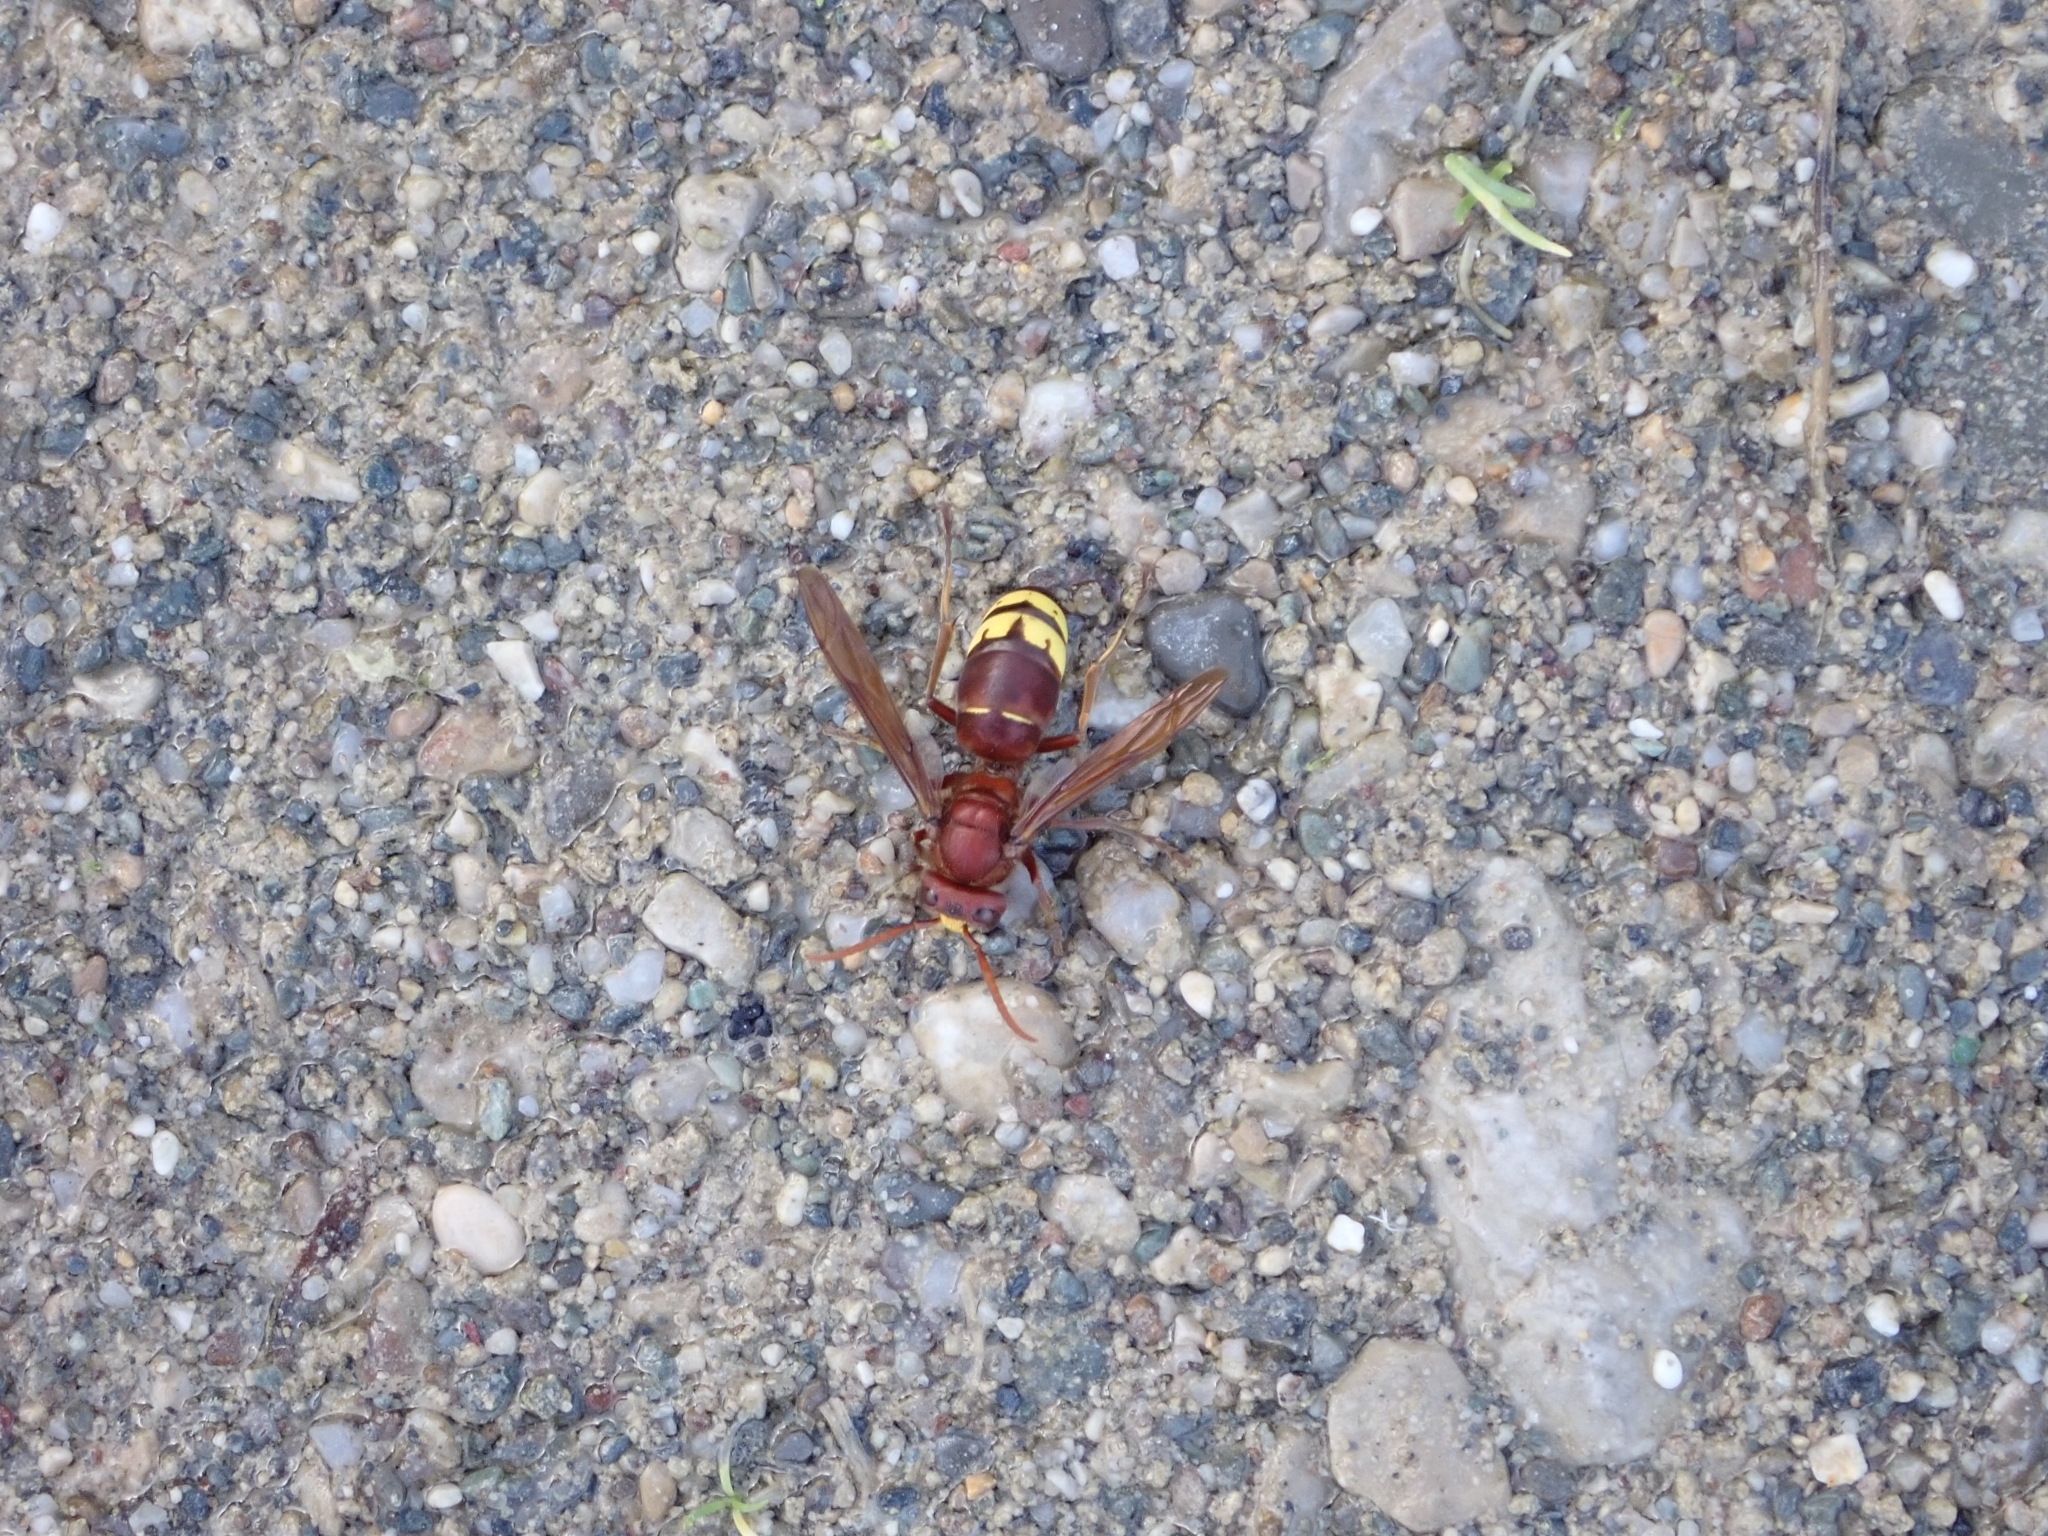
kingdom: Animalia
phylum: Arthropoda
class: Insecta
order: Hymenoptera
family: Vespidae
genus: Vespa
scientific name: Vespa orientalis
